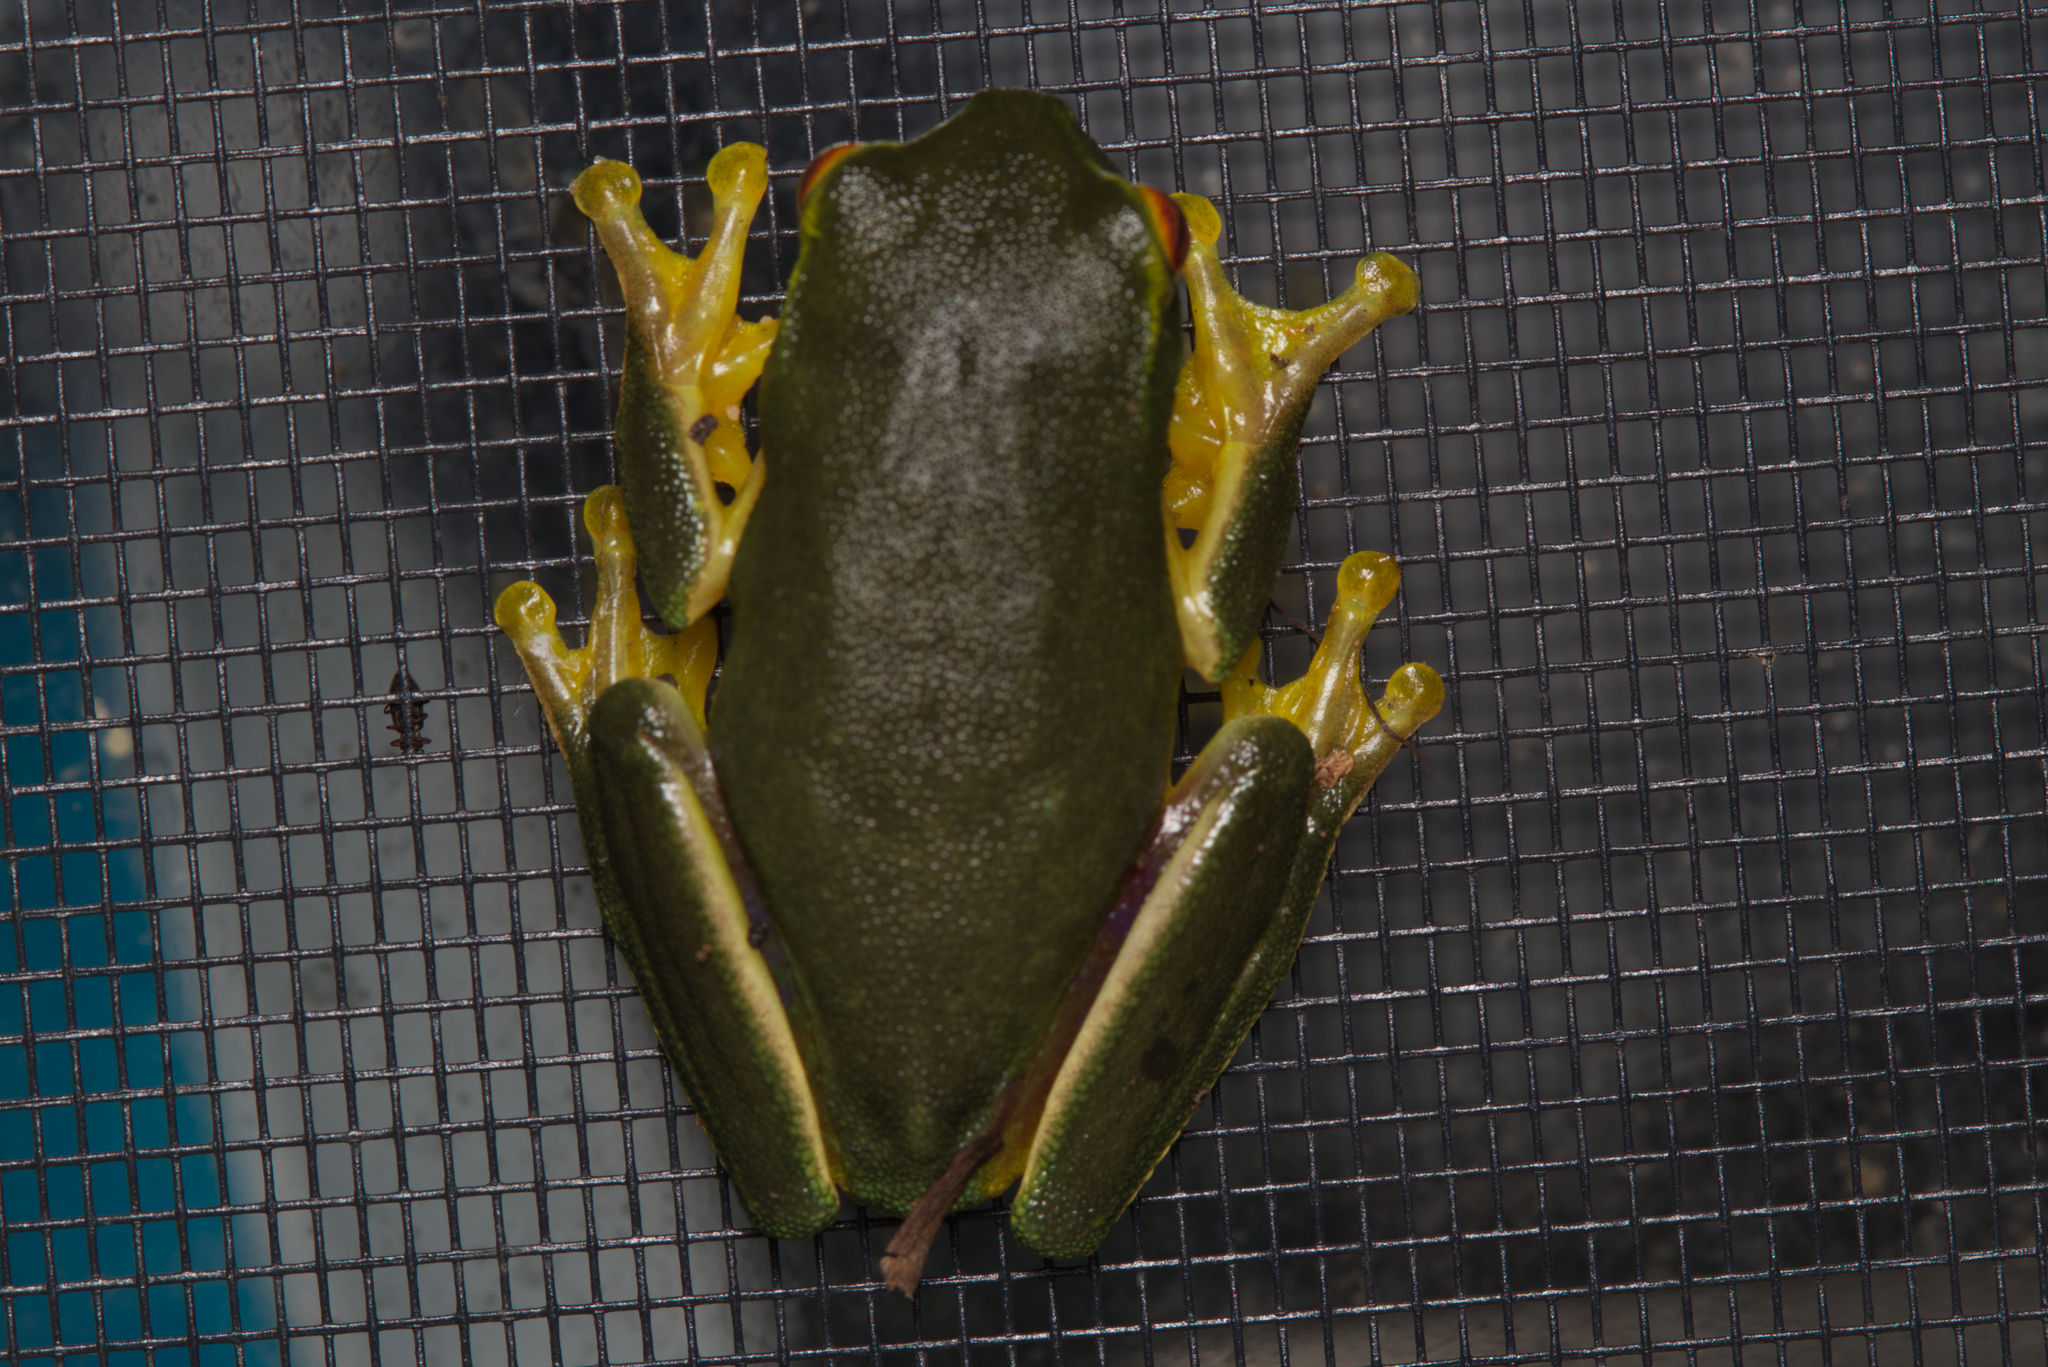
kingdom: Animalia
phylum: Chordata
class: Amphibia
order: Anura
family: Pelodryadidae
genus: Ranoidea
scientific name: Ranoidea gracilenta
